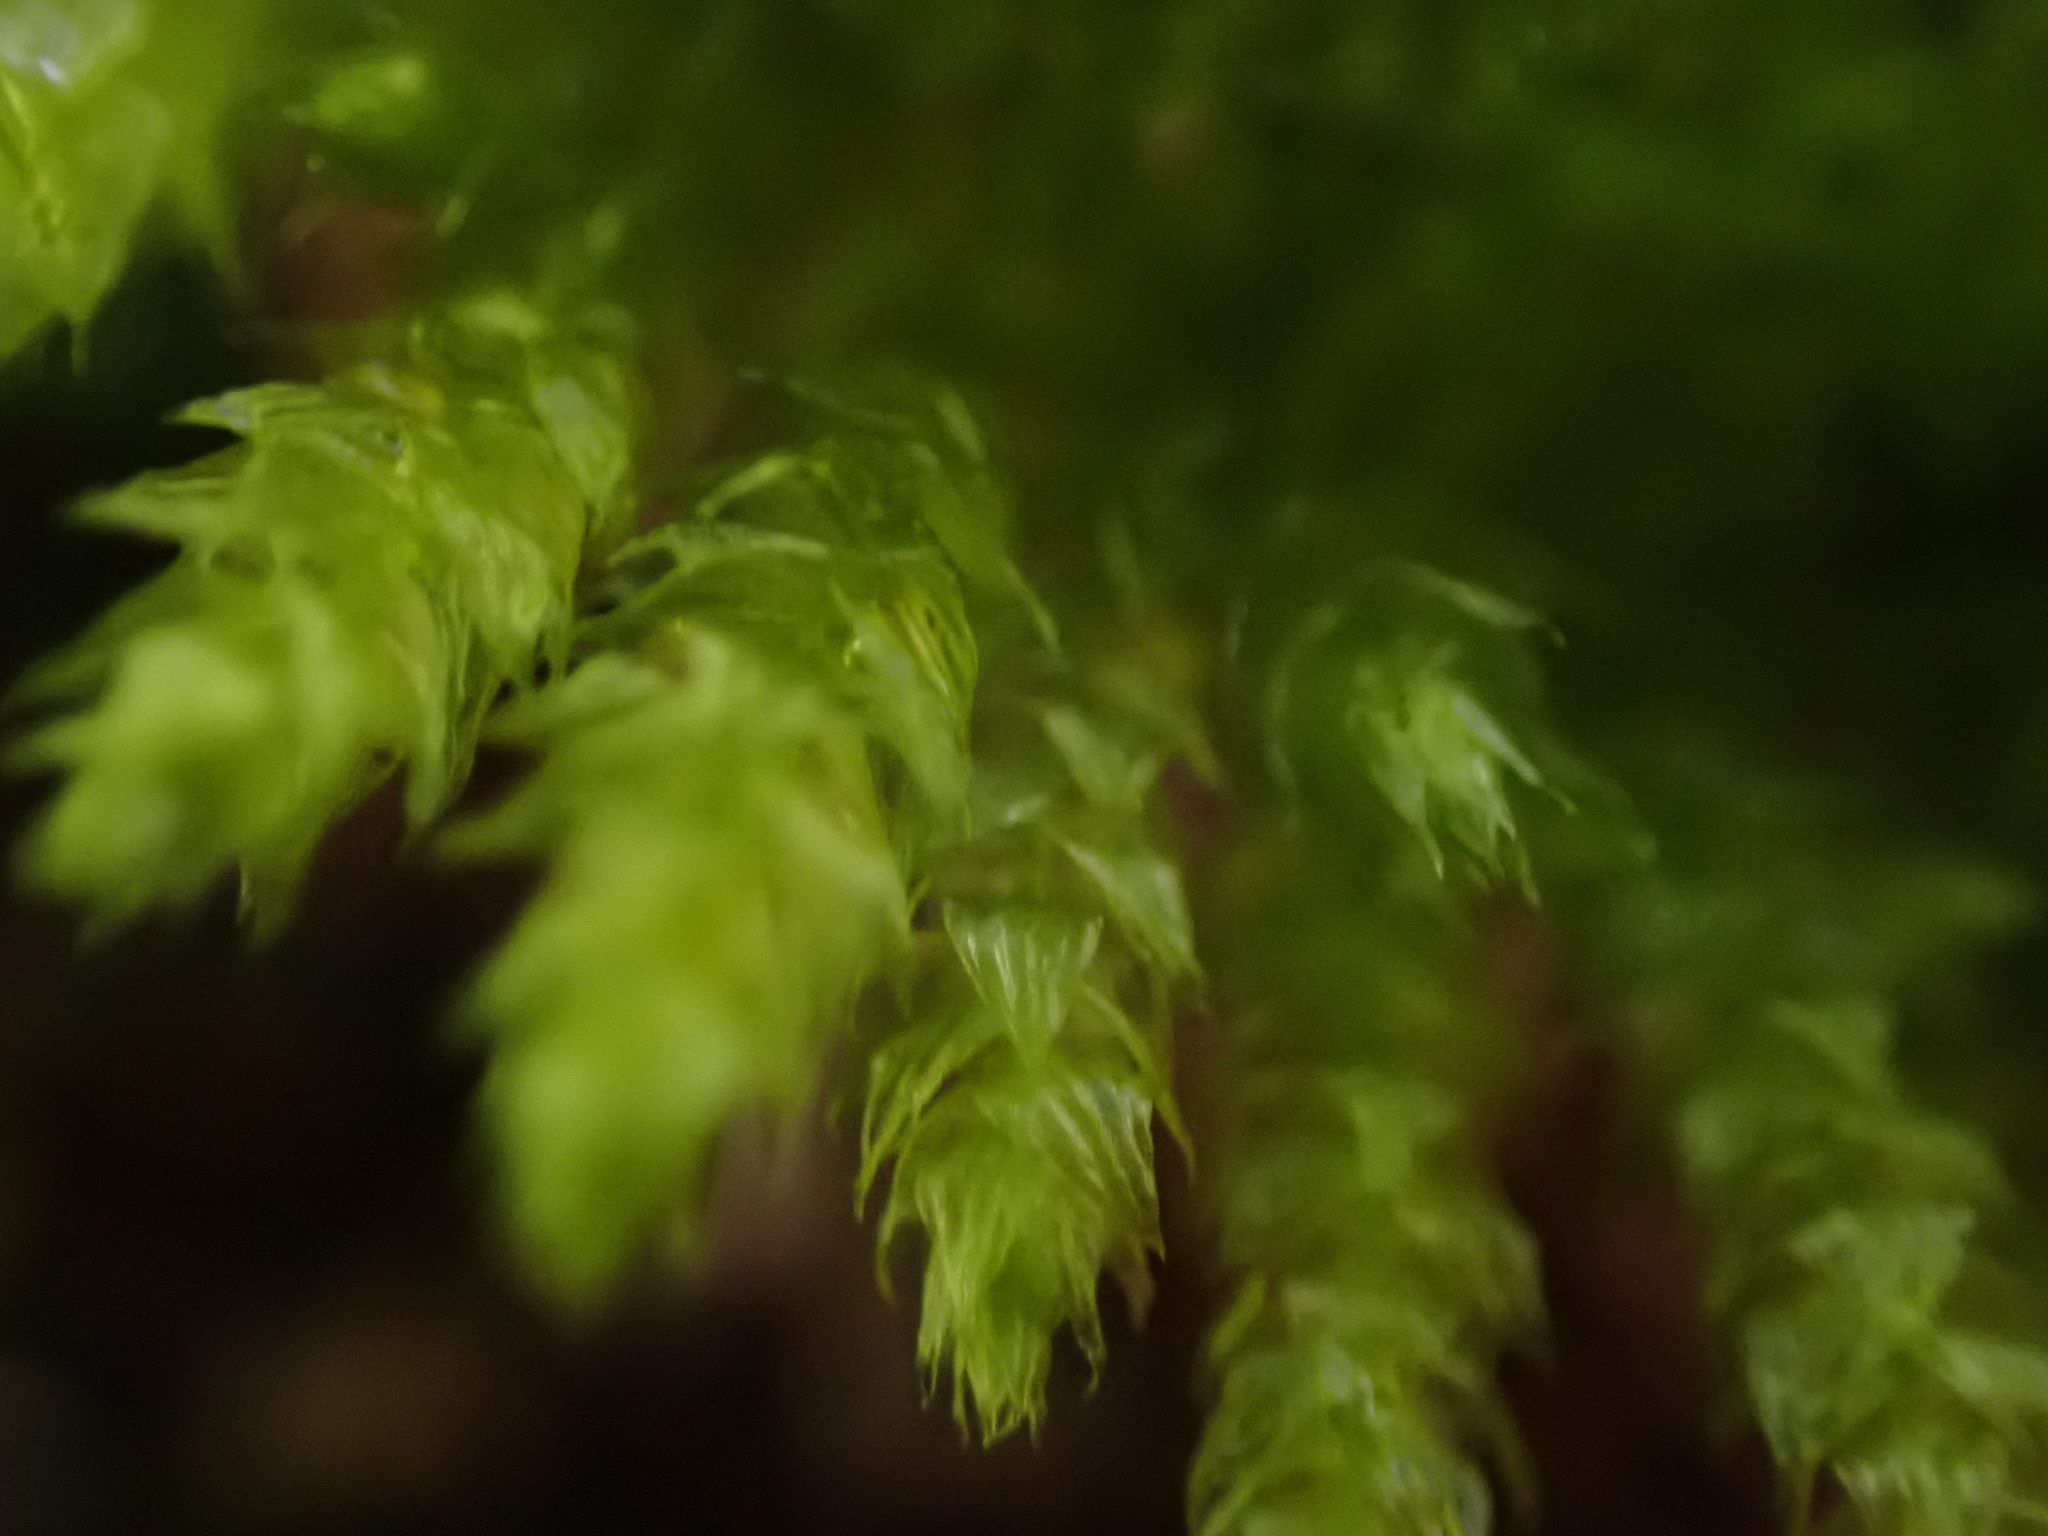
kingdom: Plantae
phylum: Bryophyta
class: Bryopsida
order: Hypnales
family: Brachytheciaceae
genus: Kindbergia
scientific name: Kindbergia oregana
